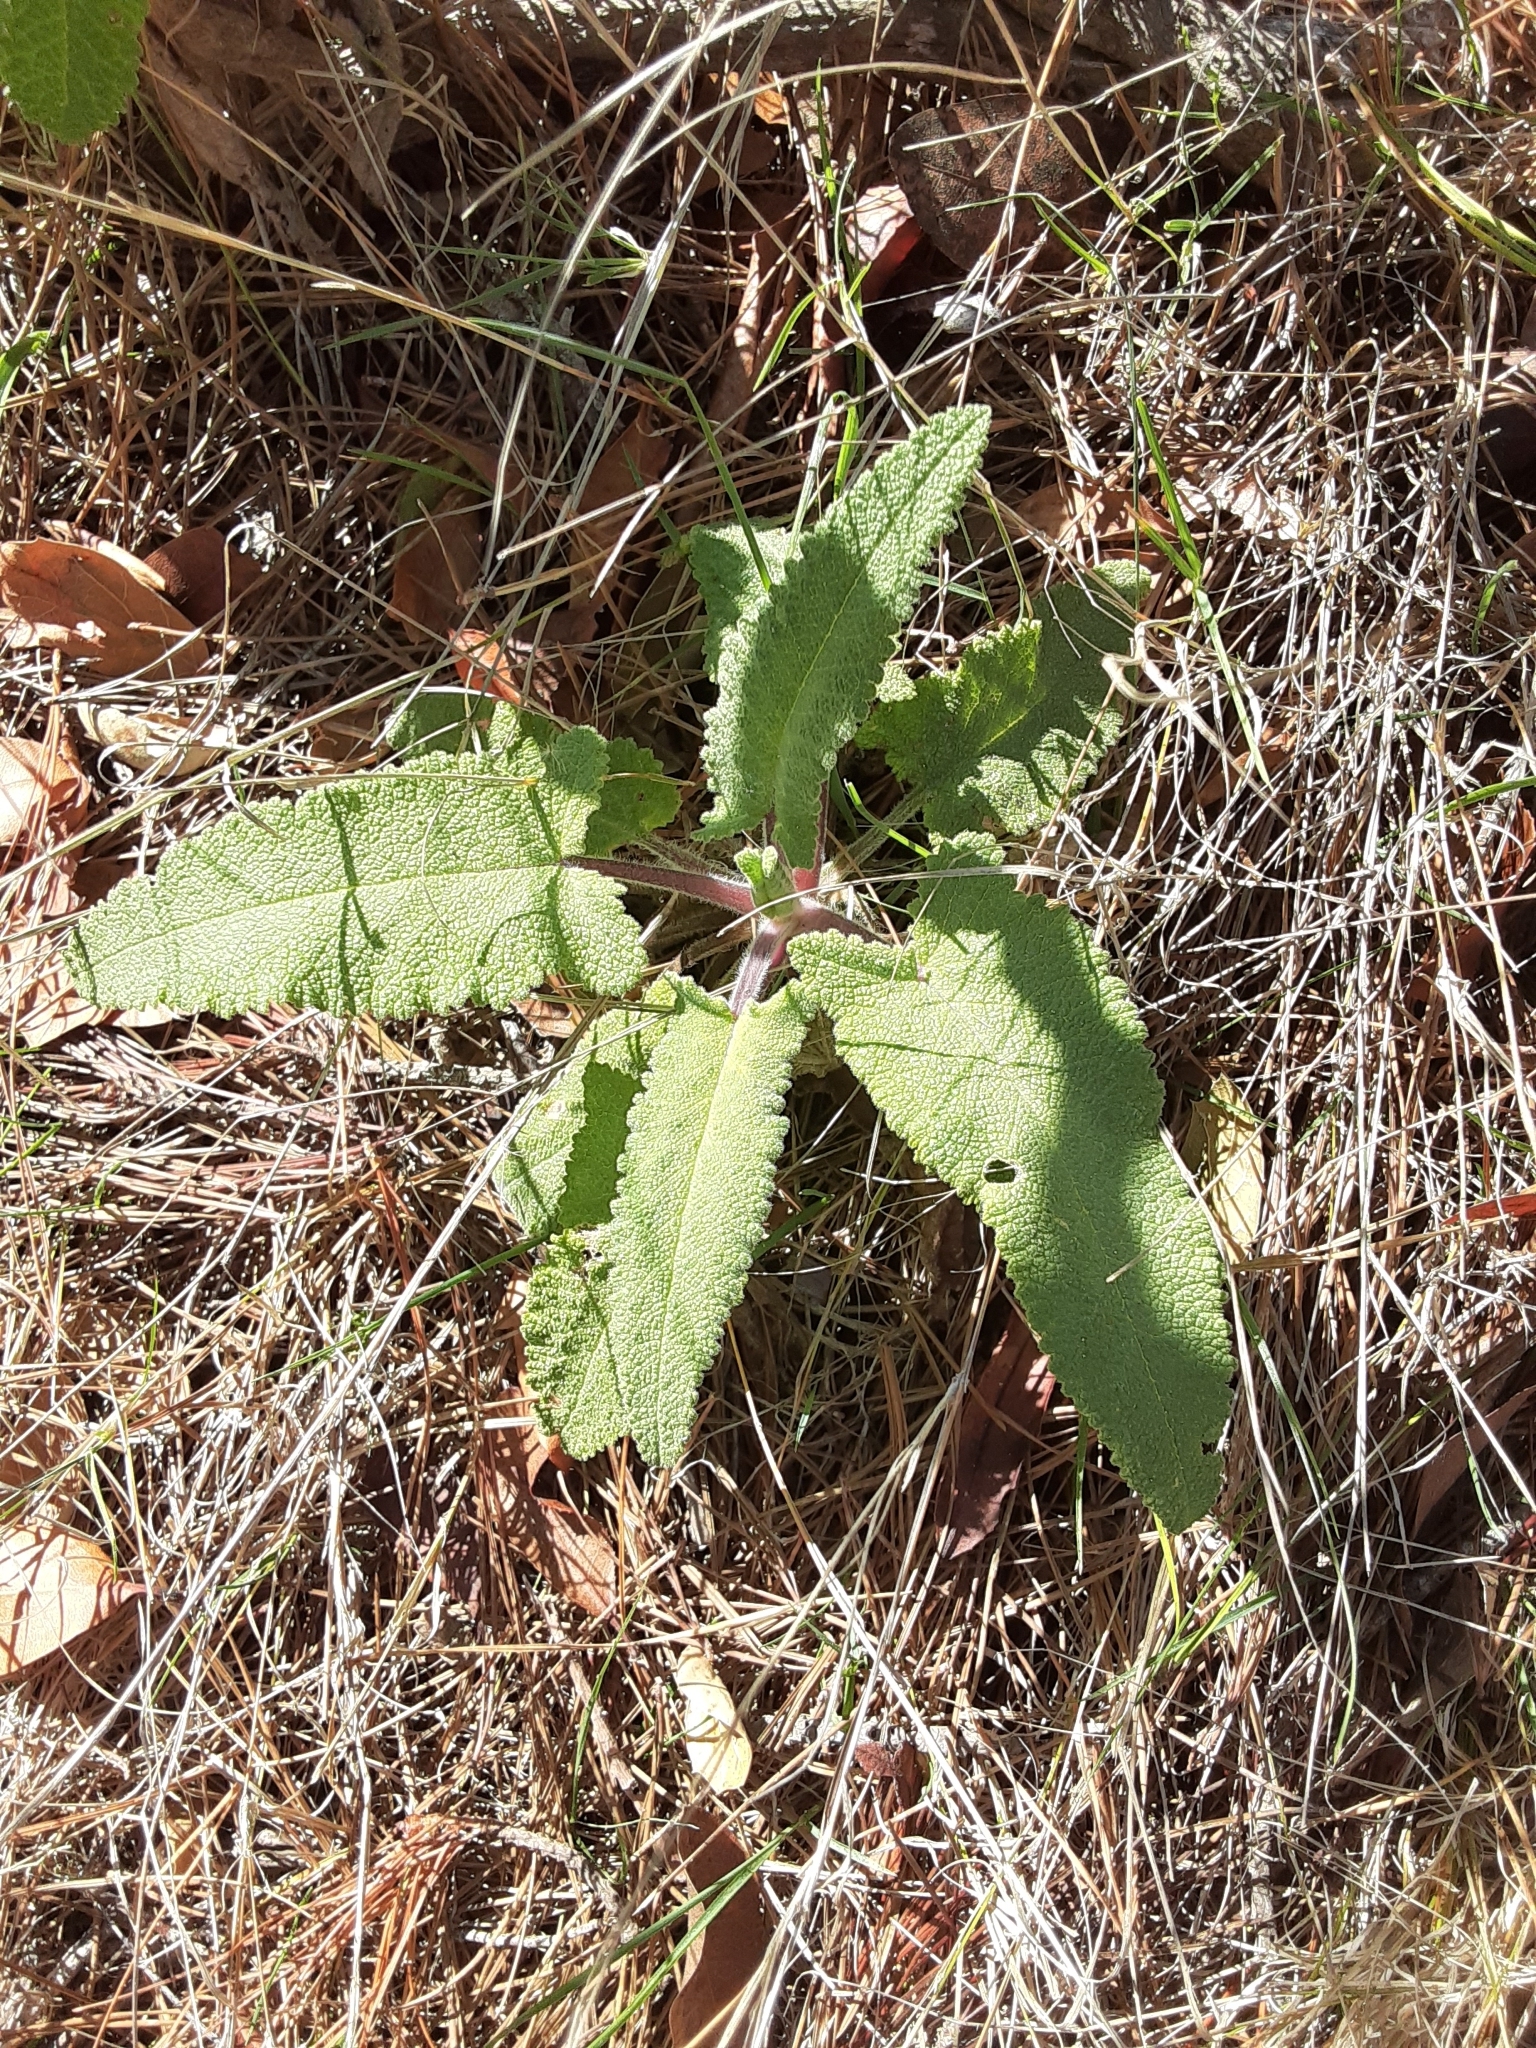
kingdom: Plantae
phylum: Tracheophyta
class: Magnoliopsida
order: Lamiales
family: Lamiaceae
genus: Salvia
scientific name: Salvia spathacea
